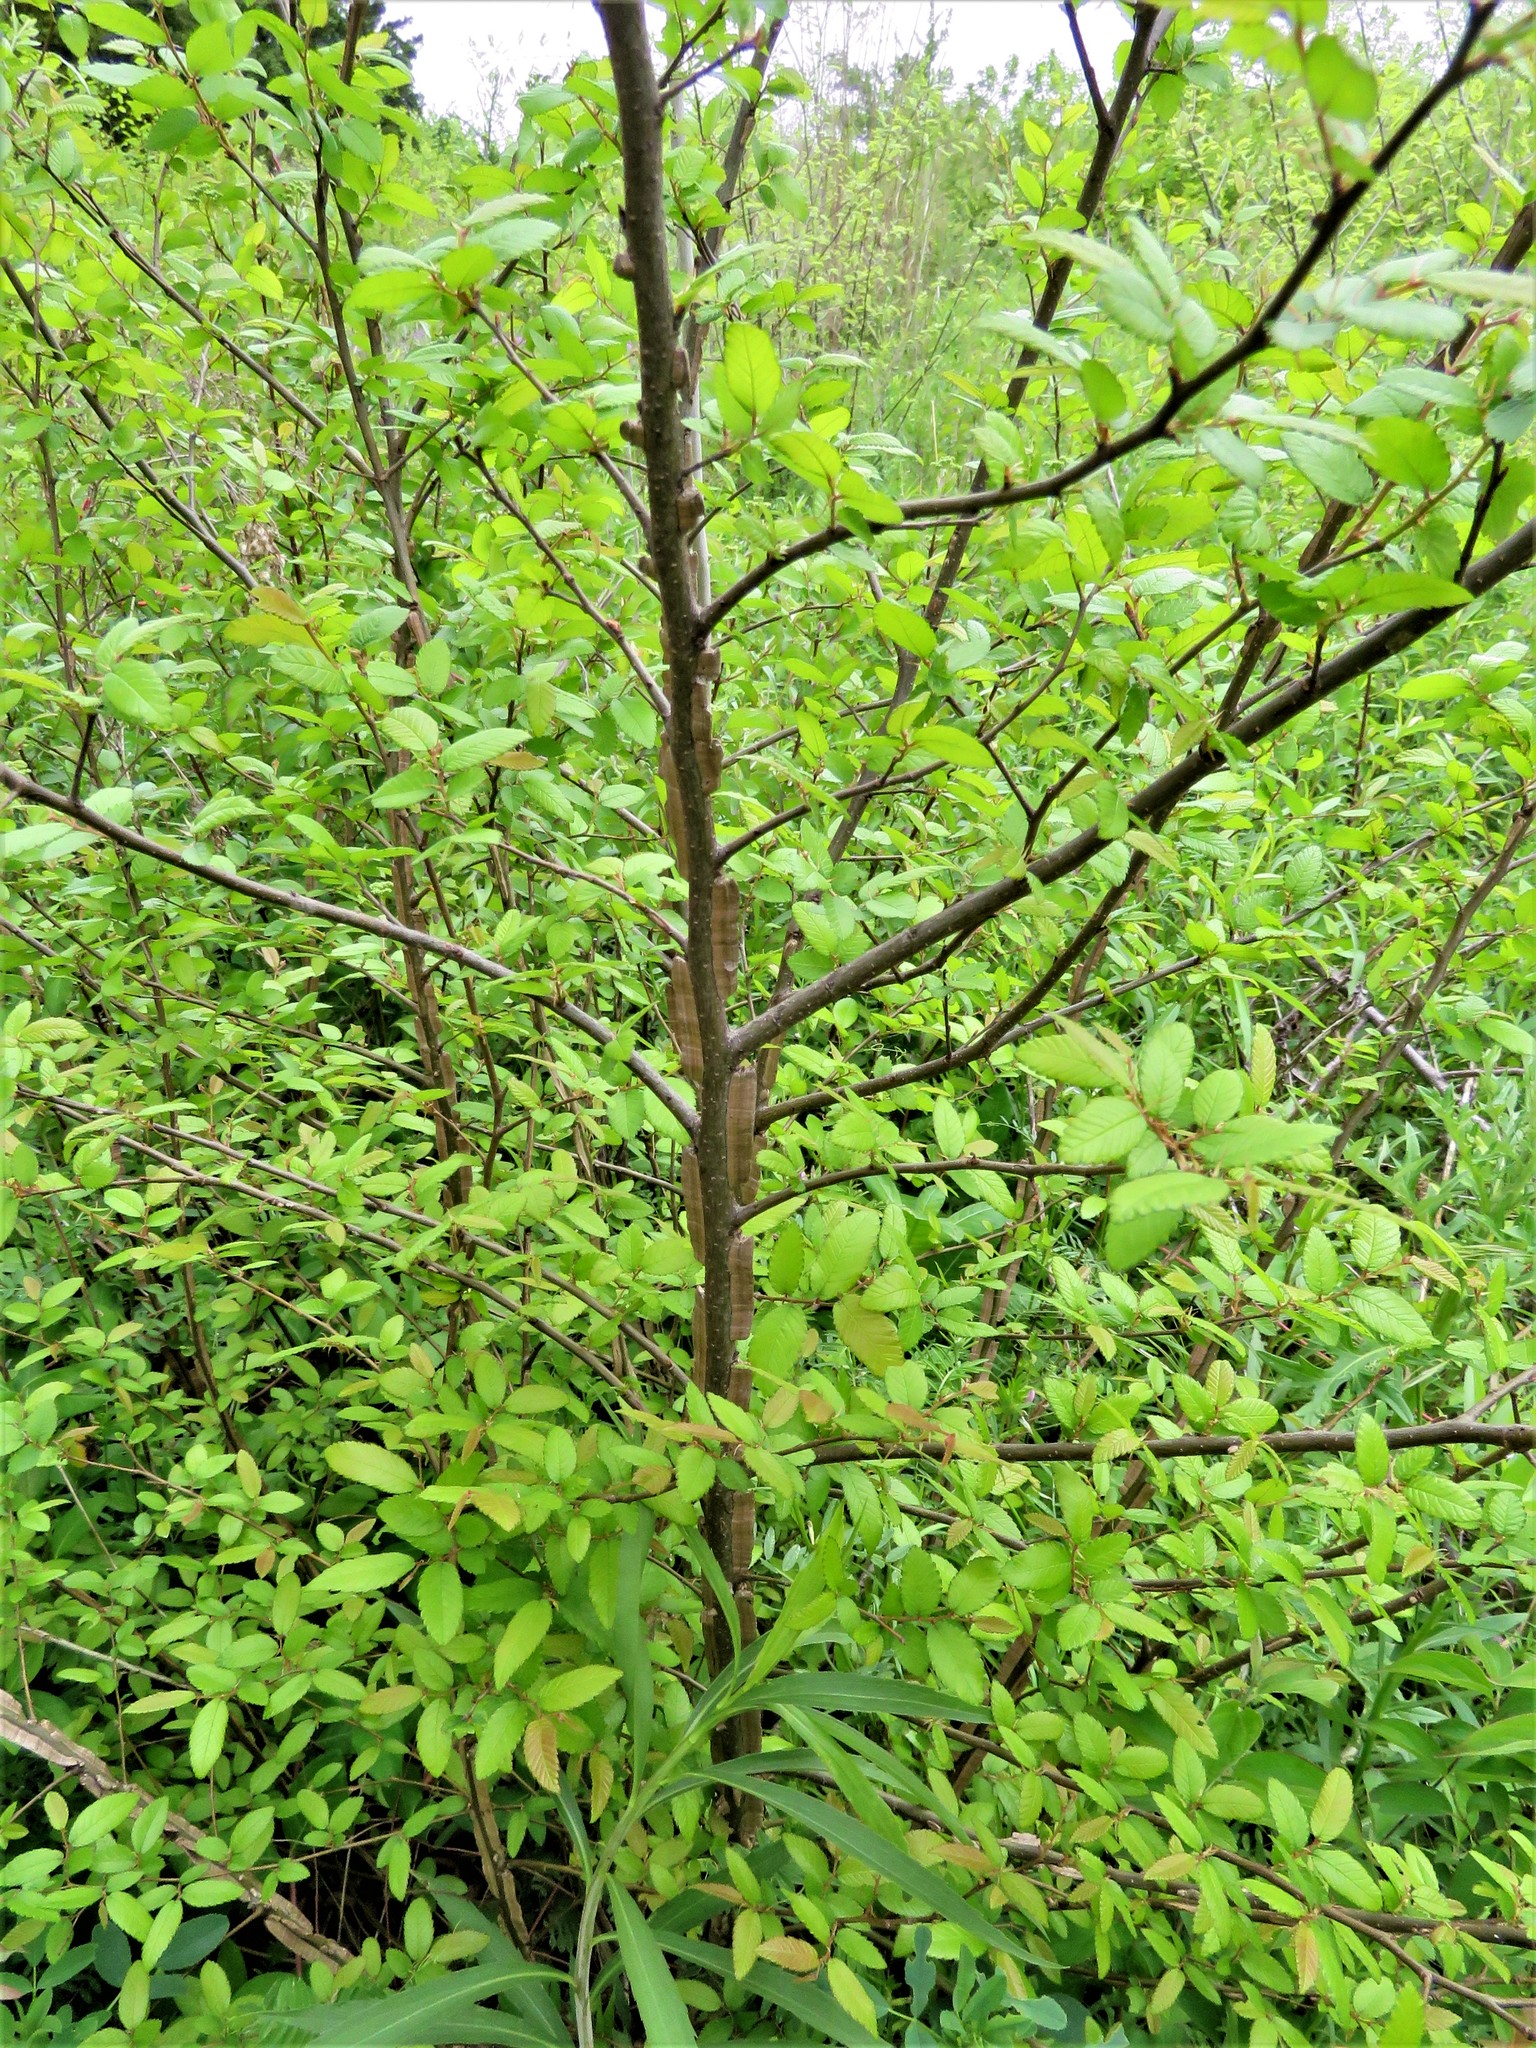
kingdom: Plantae
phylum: Tracheophyta
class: Magnoliopsida
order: Rosales
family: Ulmaceae
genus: Ulmus
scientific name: Ulmus crassifolia
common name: Basket elm
